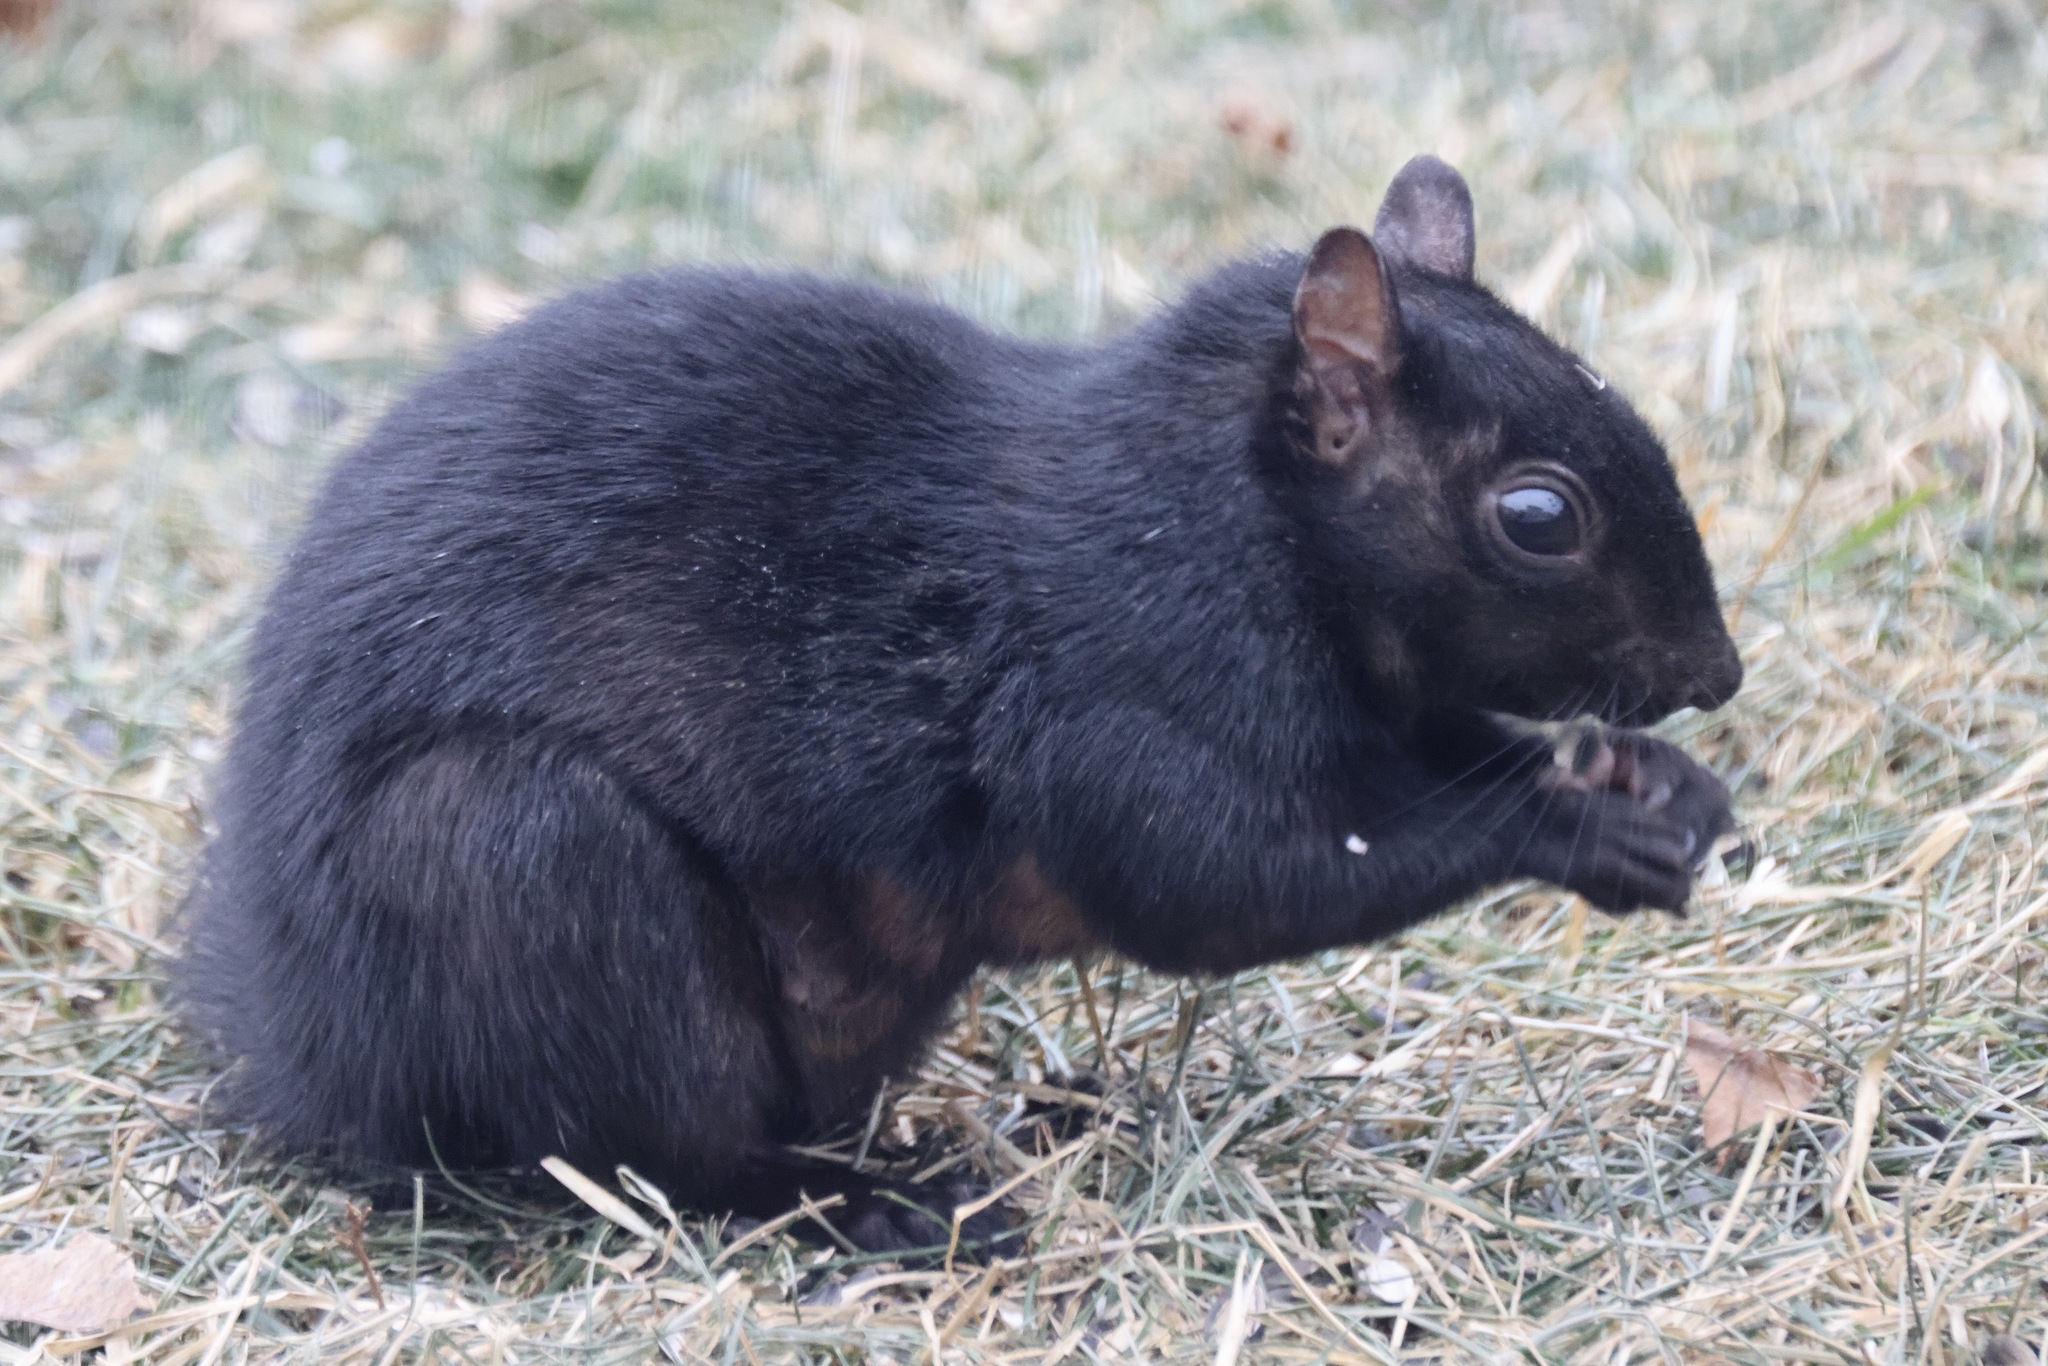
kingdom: Animalia
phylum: Chordata
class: Mammalia
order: Rodentia
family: Sciuridae
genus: Sciurus
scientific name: Sciurus carolinensis
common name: Eastern gray squirrel
